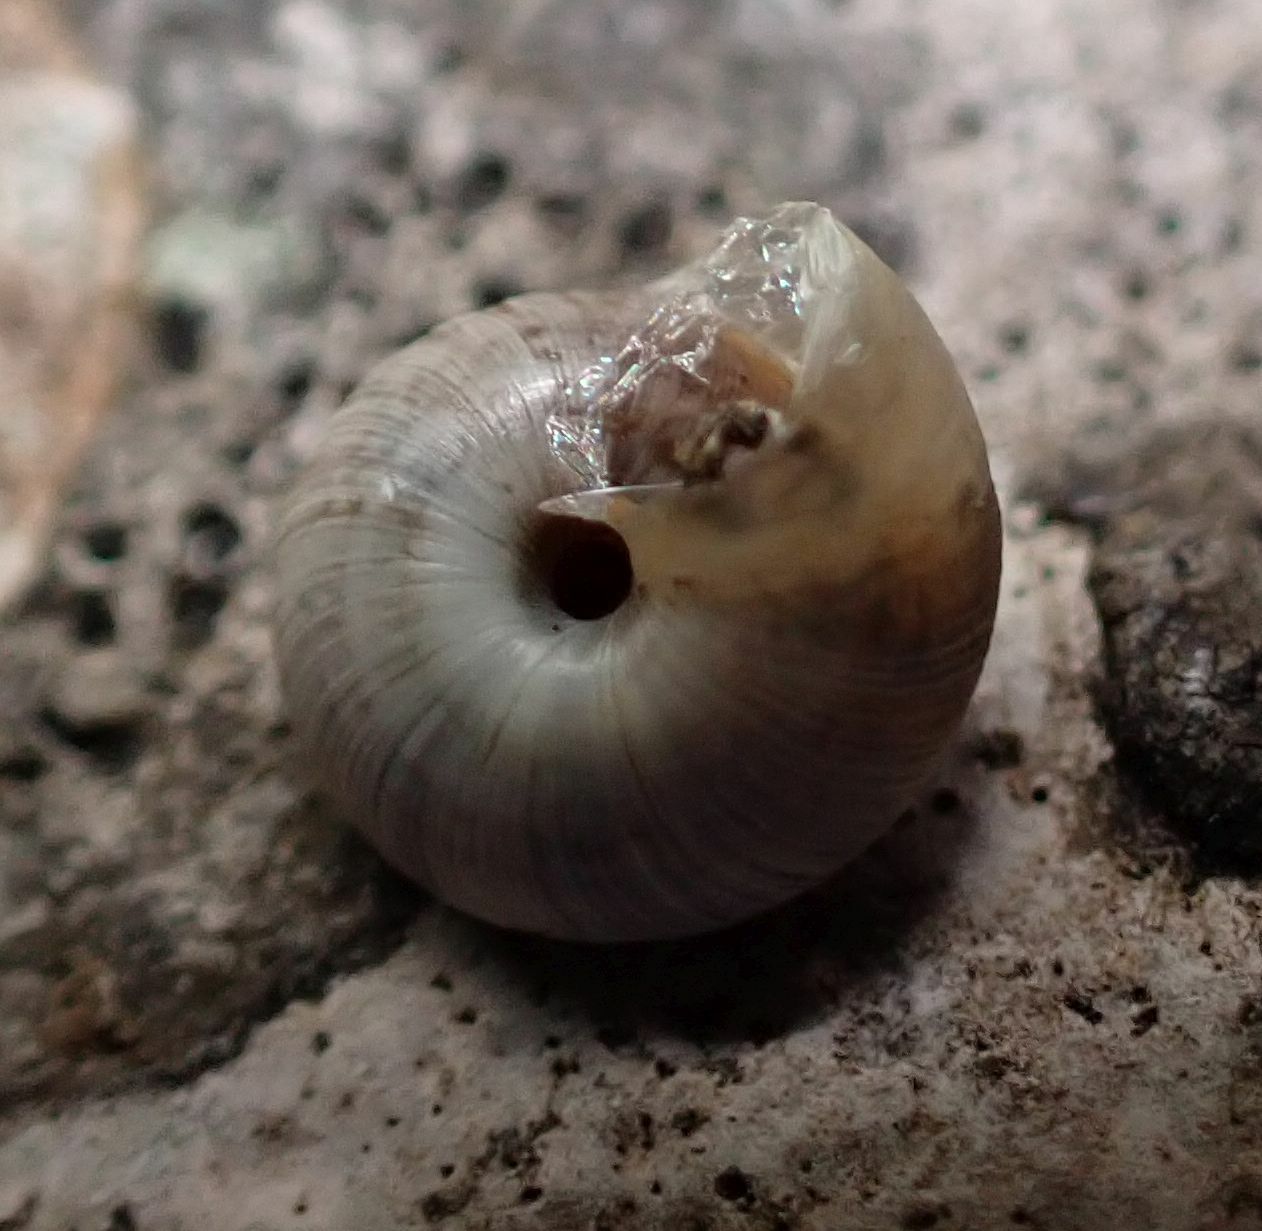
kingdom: Animalia
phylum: Mollusca
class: Gastropoda
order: Stylommatophora
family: Geomitridae
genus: Xeroplexa
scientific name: Xeroplexa intersecta
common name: Wrinkled snail
